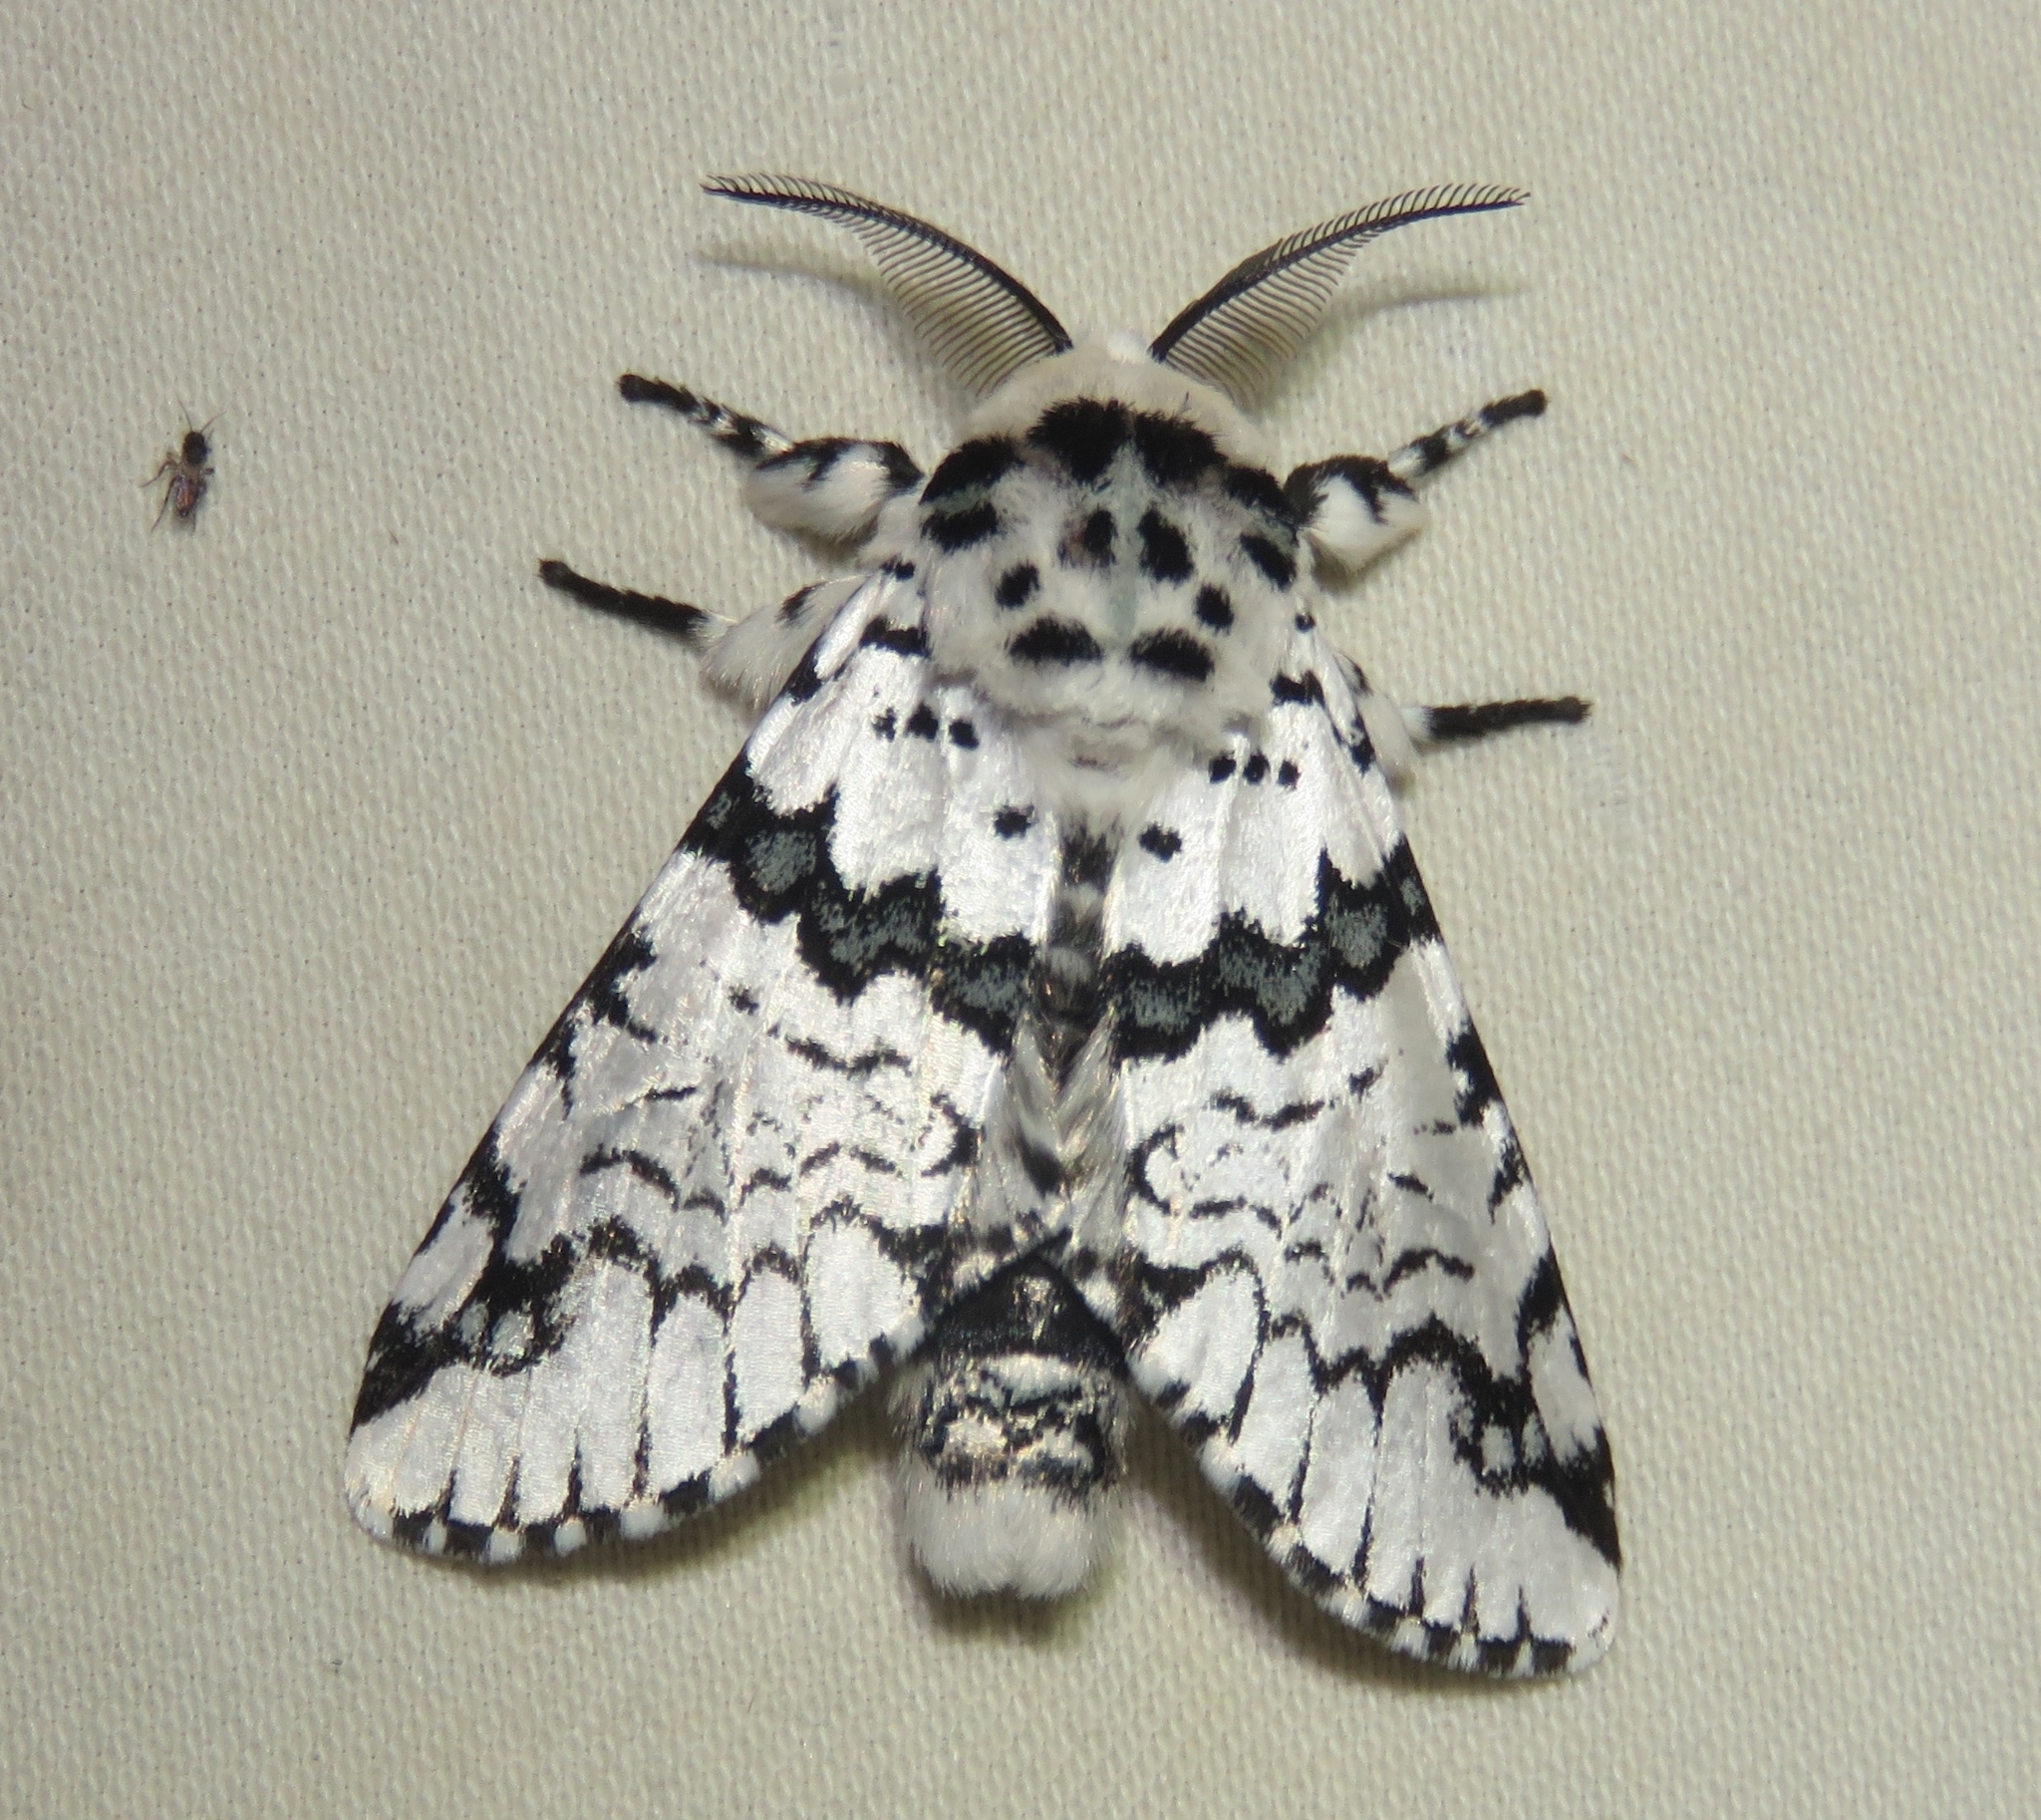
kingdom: Animalia
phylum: Arthropoda
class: Insecta
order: Lepidoptera
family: Notodontidae
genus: Neocerura
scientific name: Neocerura liturata
